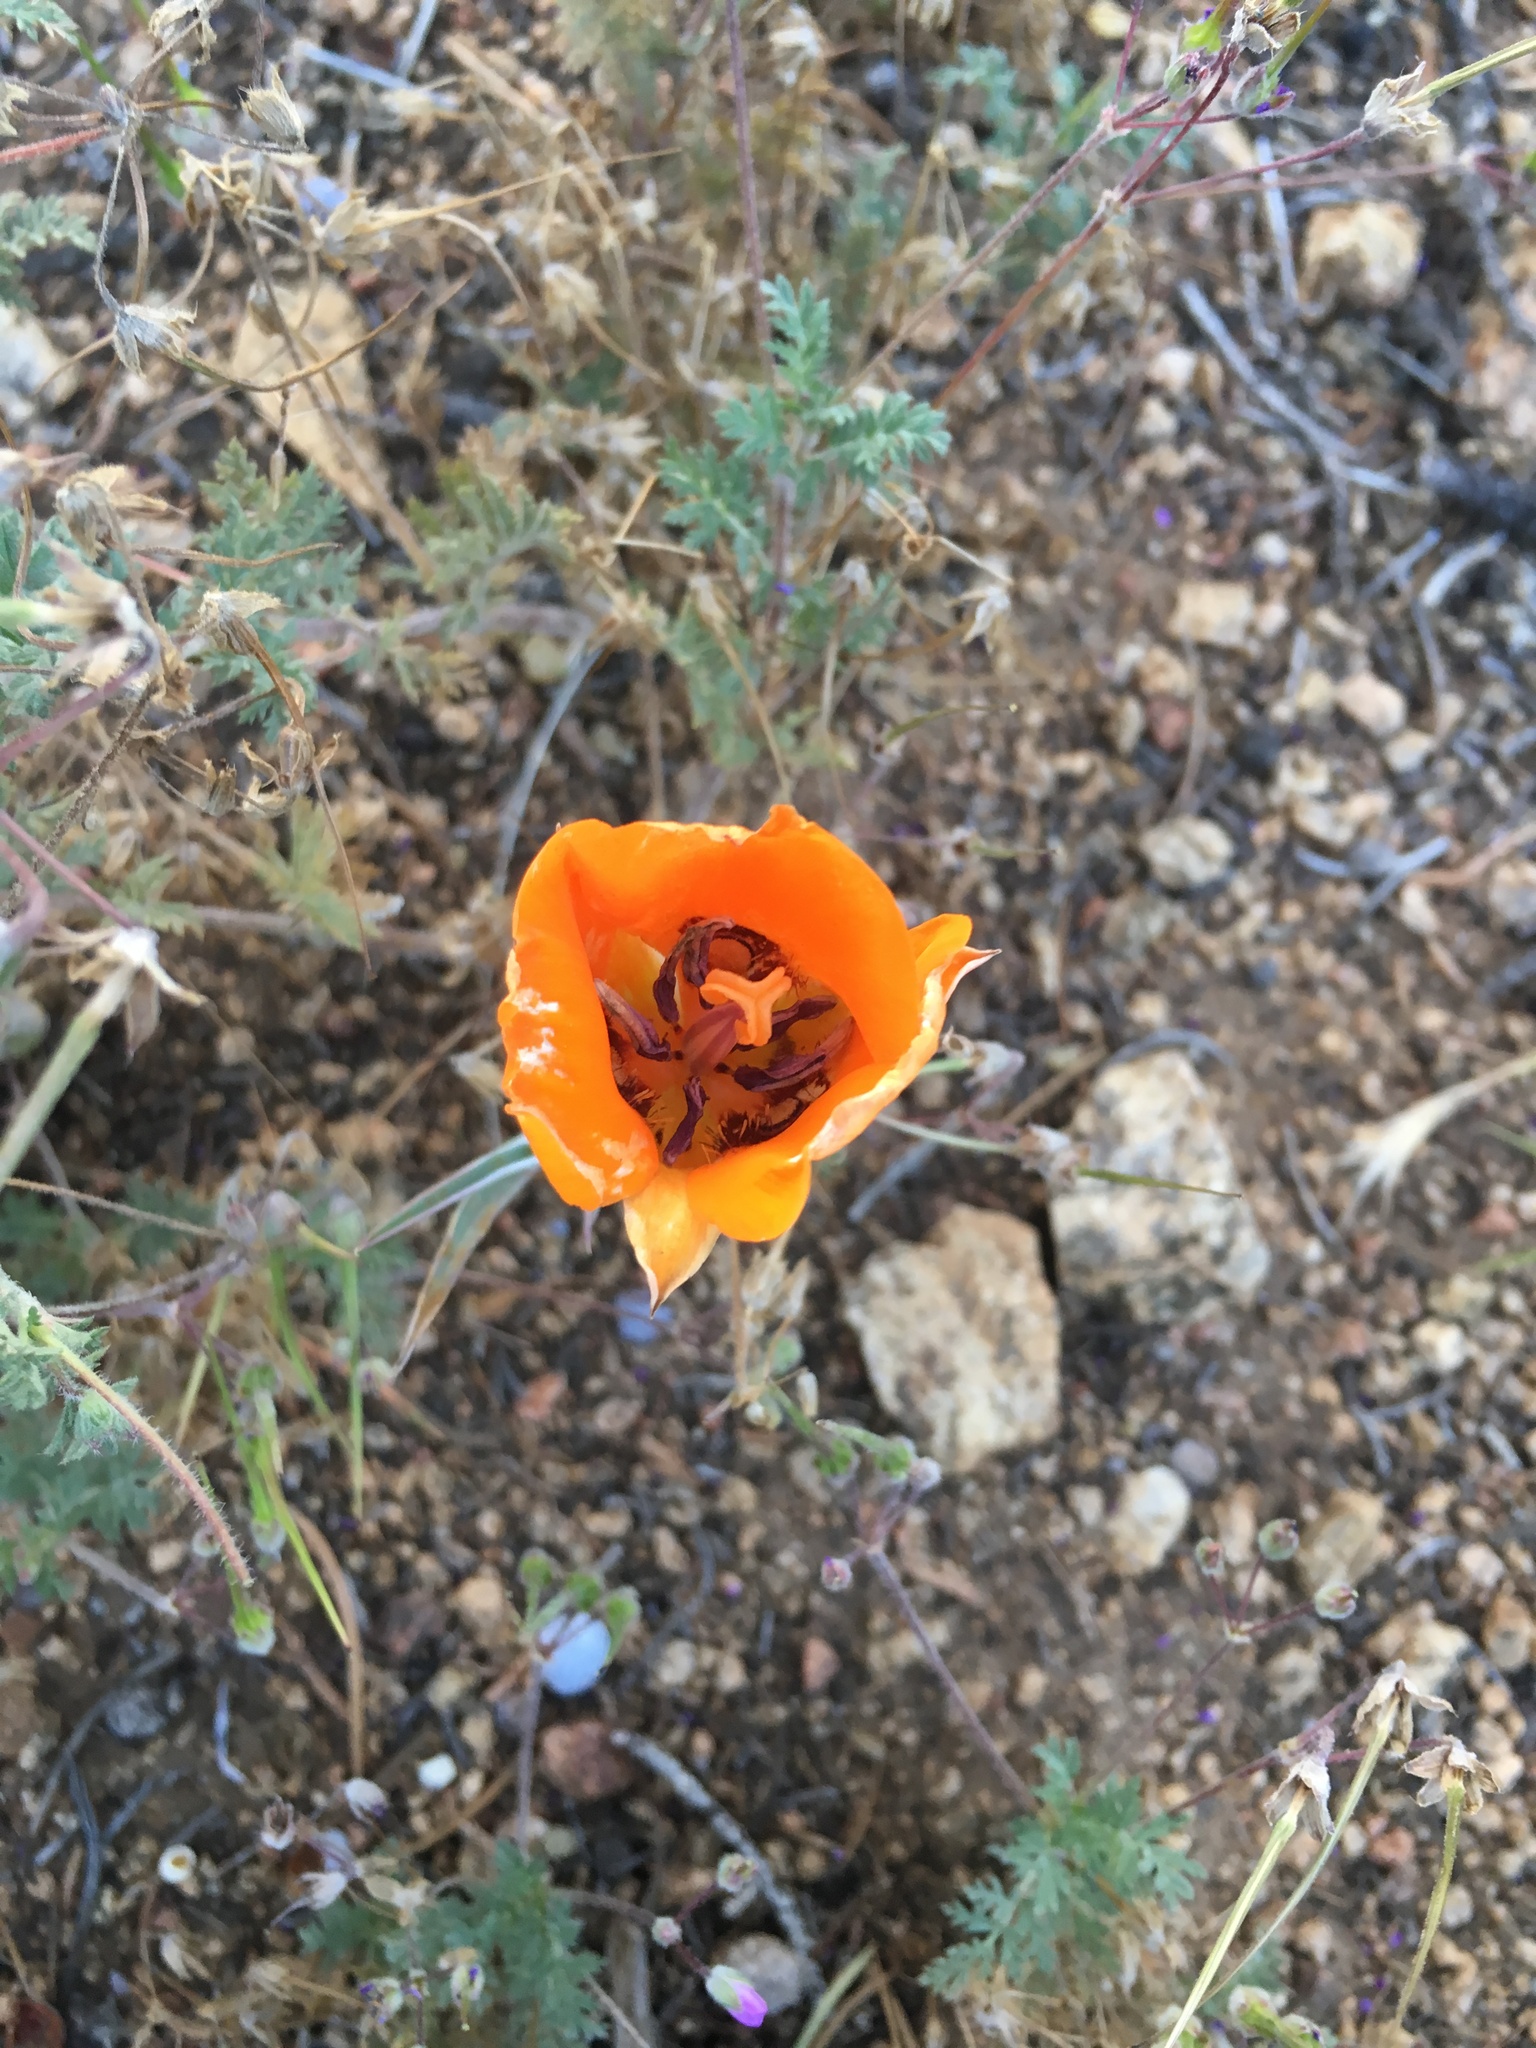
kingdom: Plantae
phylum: Tracheophyta
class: Liliopsida
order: Liliales
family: Liliaceae
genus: Calochortus
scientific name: Calochortus kennedyi
